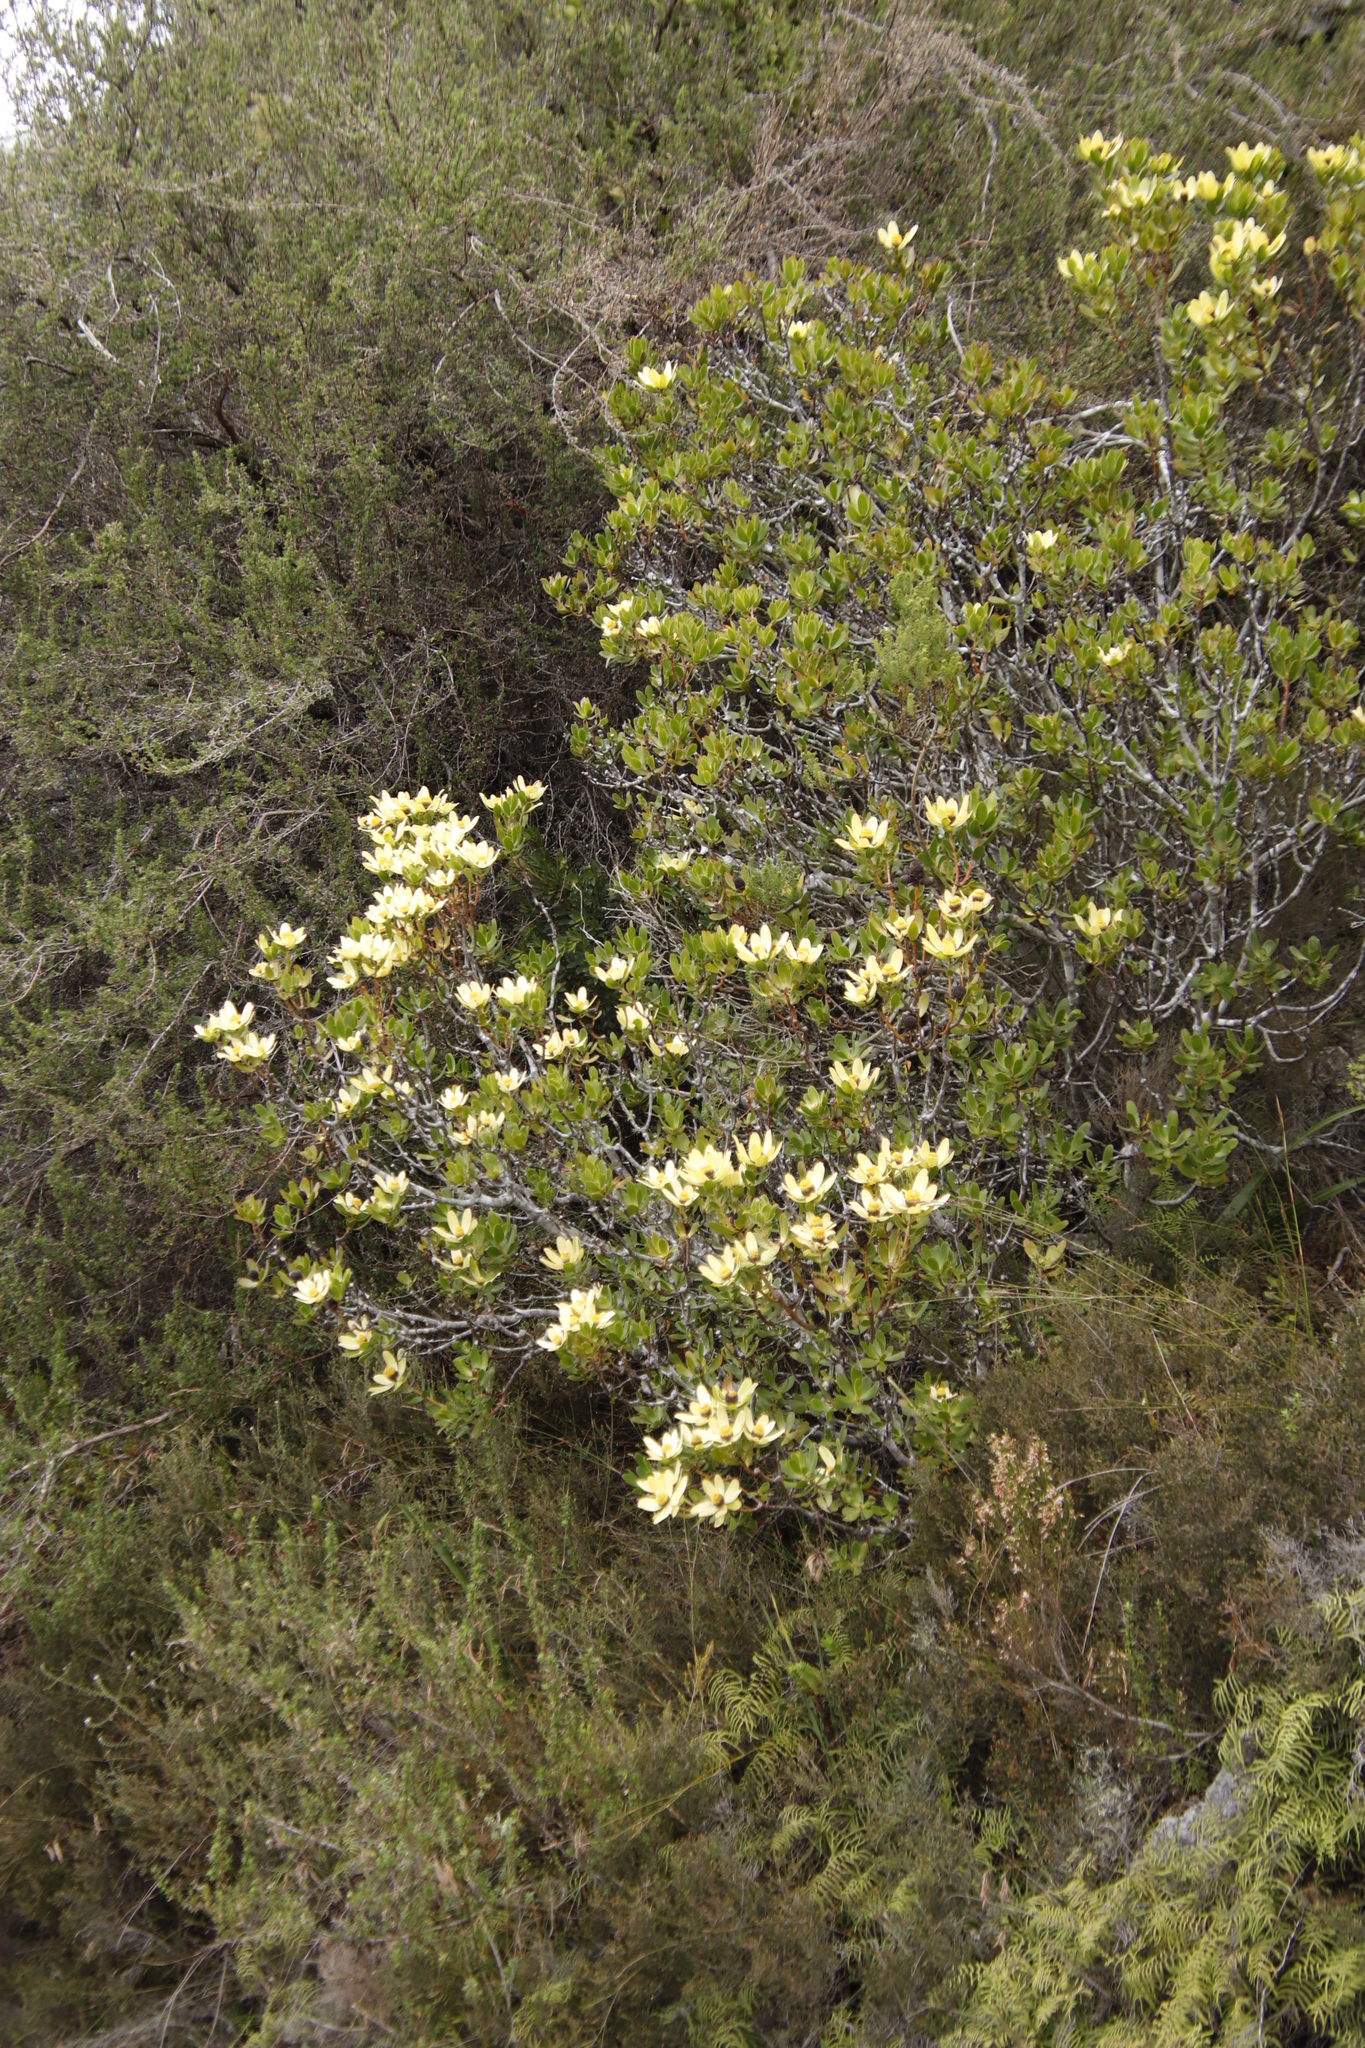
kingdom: Plantae
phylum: Tracheophyta
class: Magnoliopsida
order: Proteales
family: Proteaceae
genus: Leucadendron
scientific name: Leucadendron strobilinum
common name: Mountain rose
